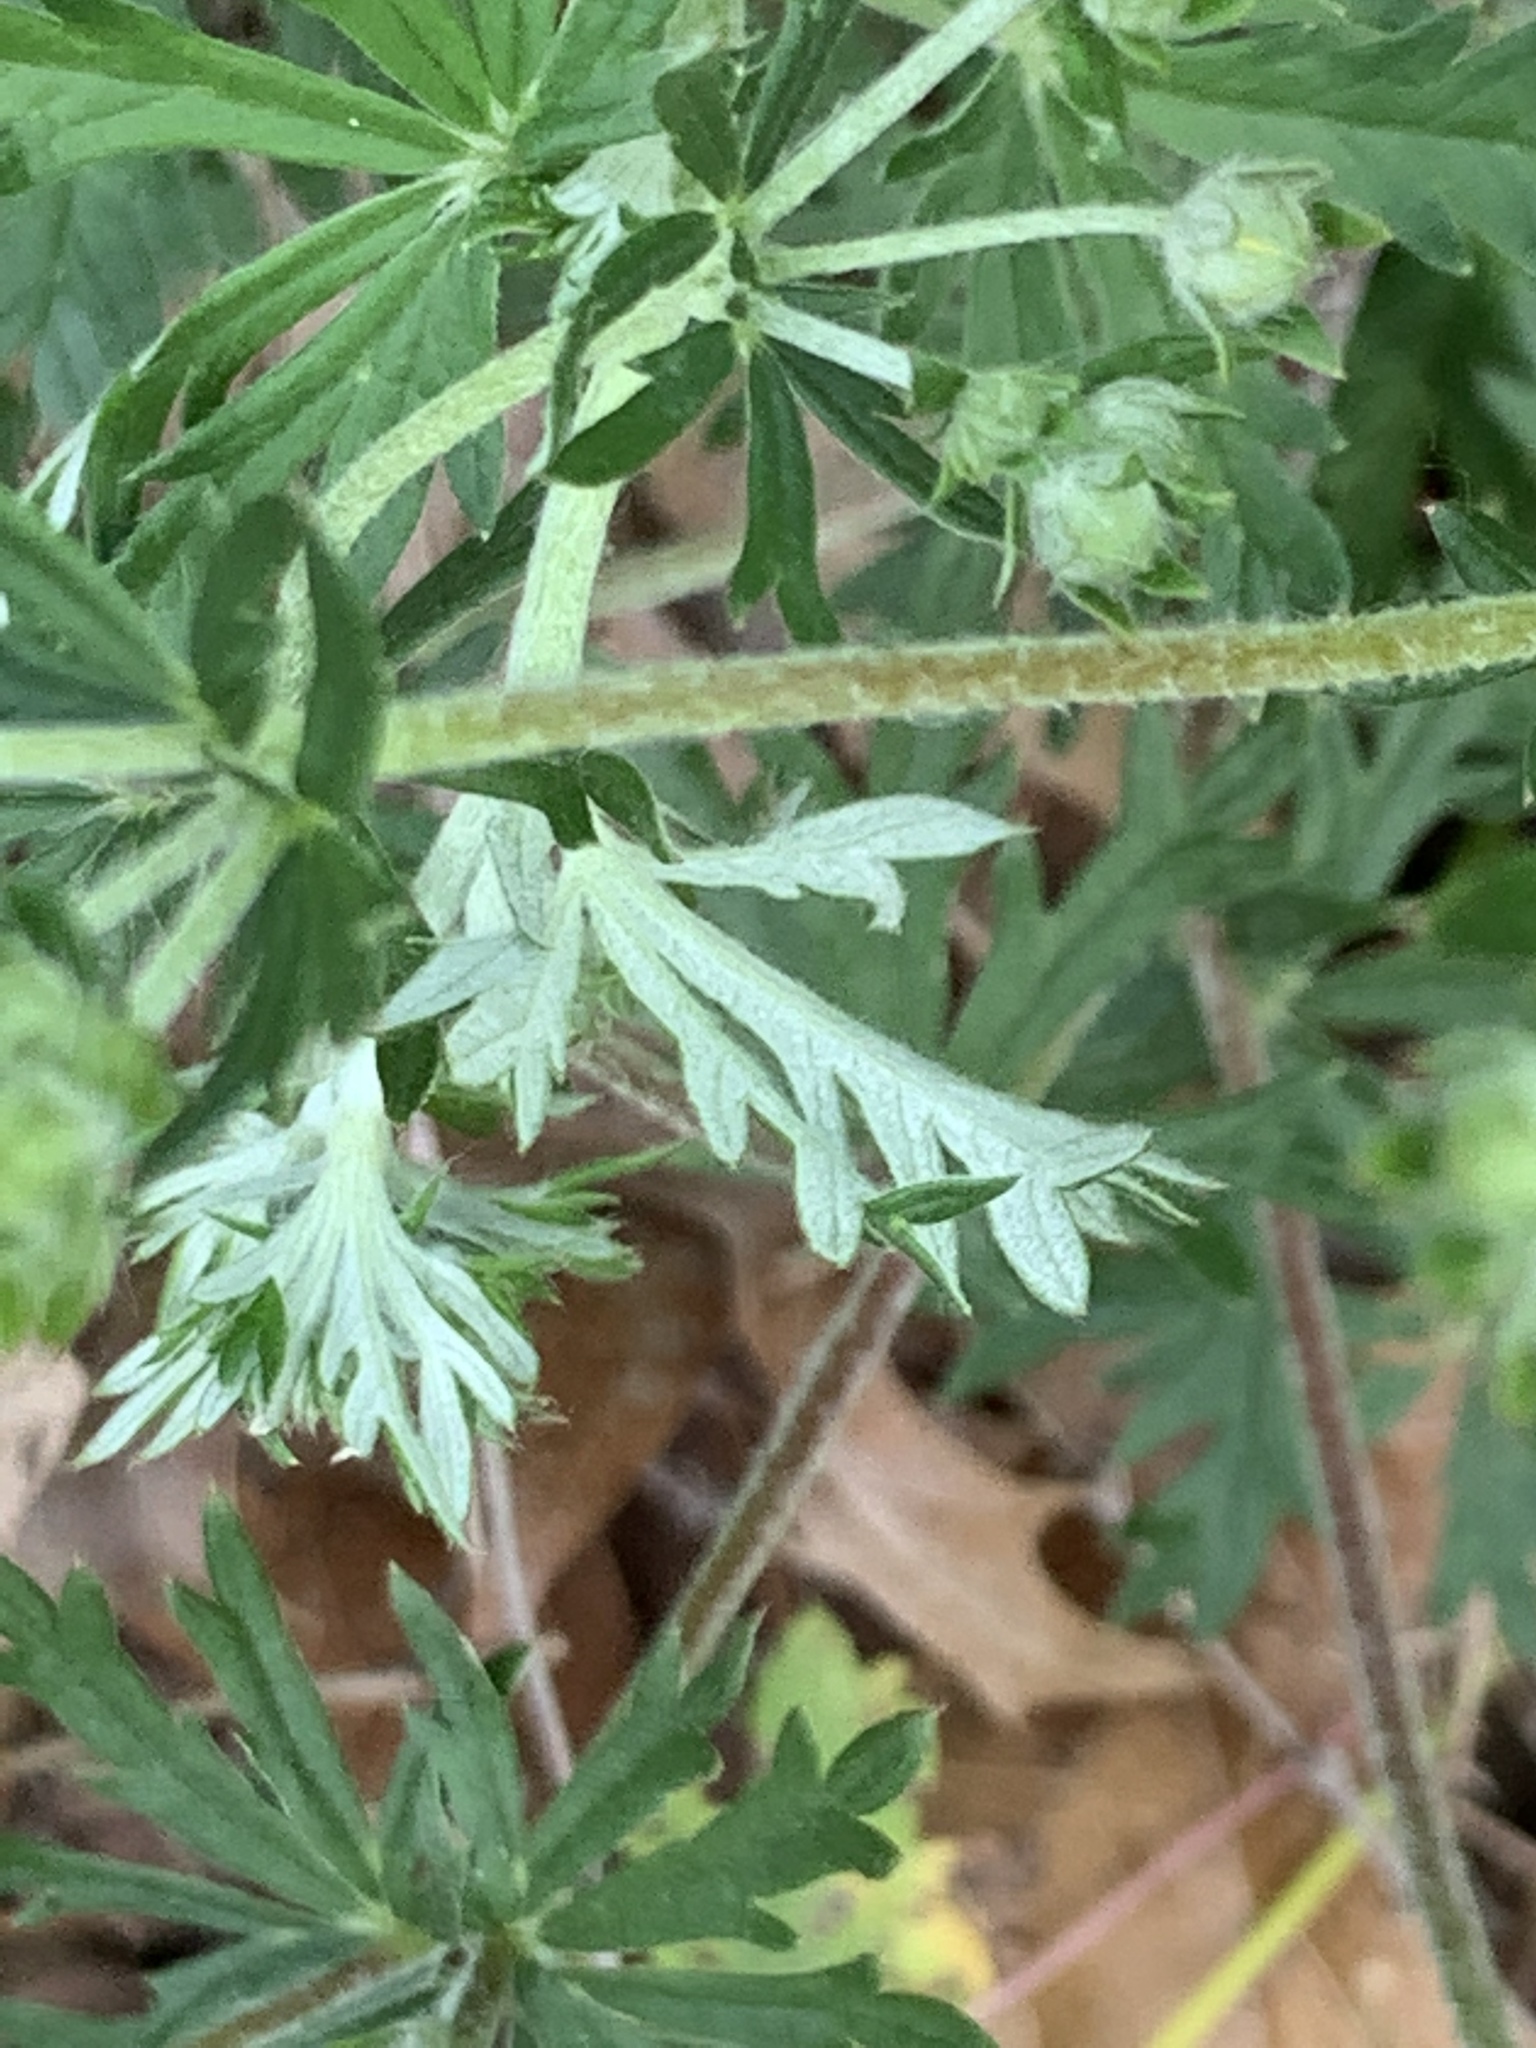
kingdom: Plantae
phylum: Tracheophyta
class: Magnoliopsida
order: Rosales
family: Rosaceae
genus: Potentilla
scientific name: Potentilla argentea
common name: Hoary cinquefoil
